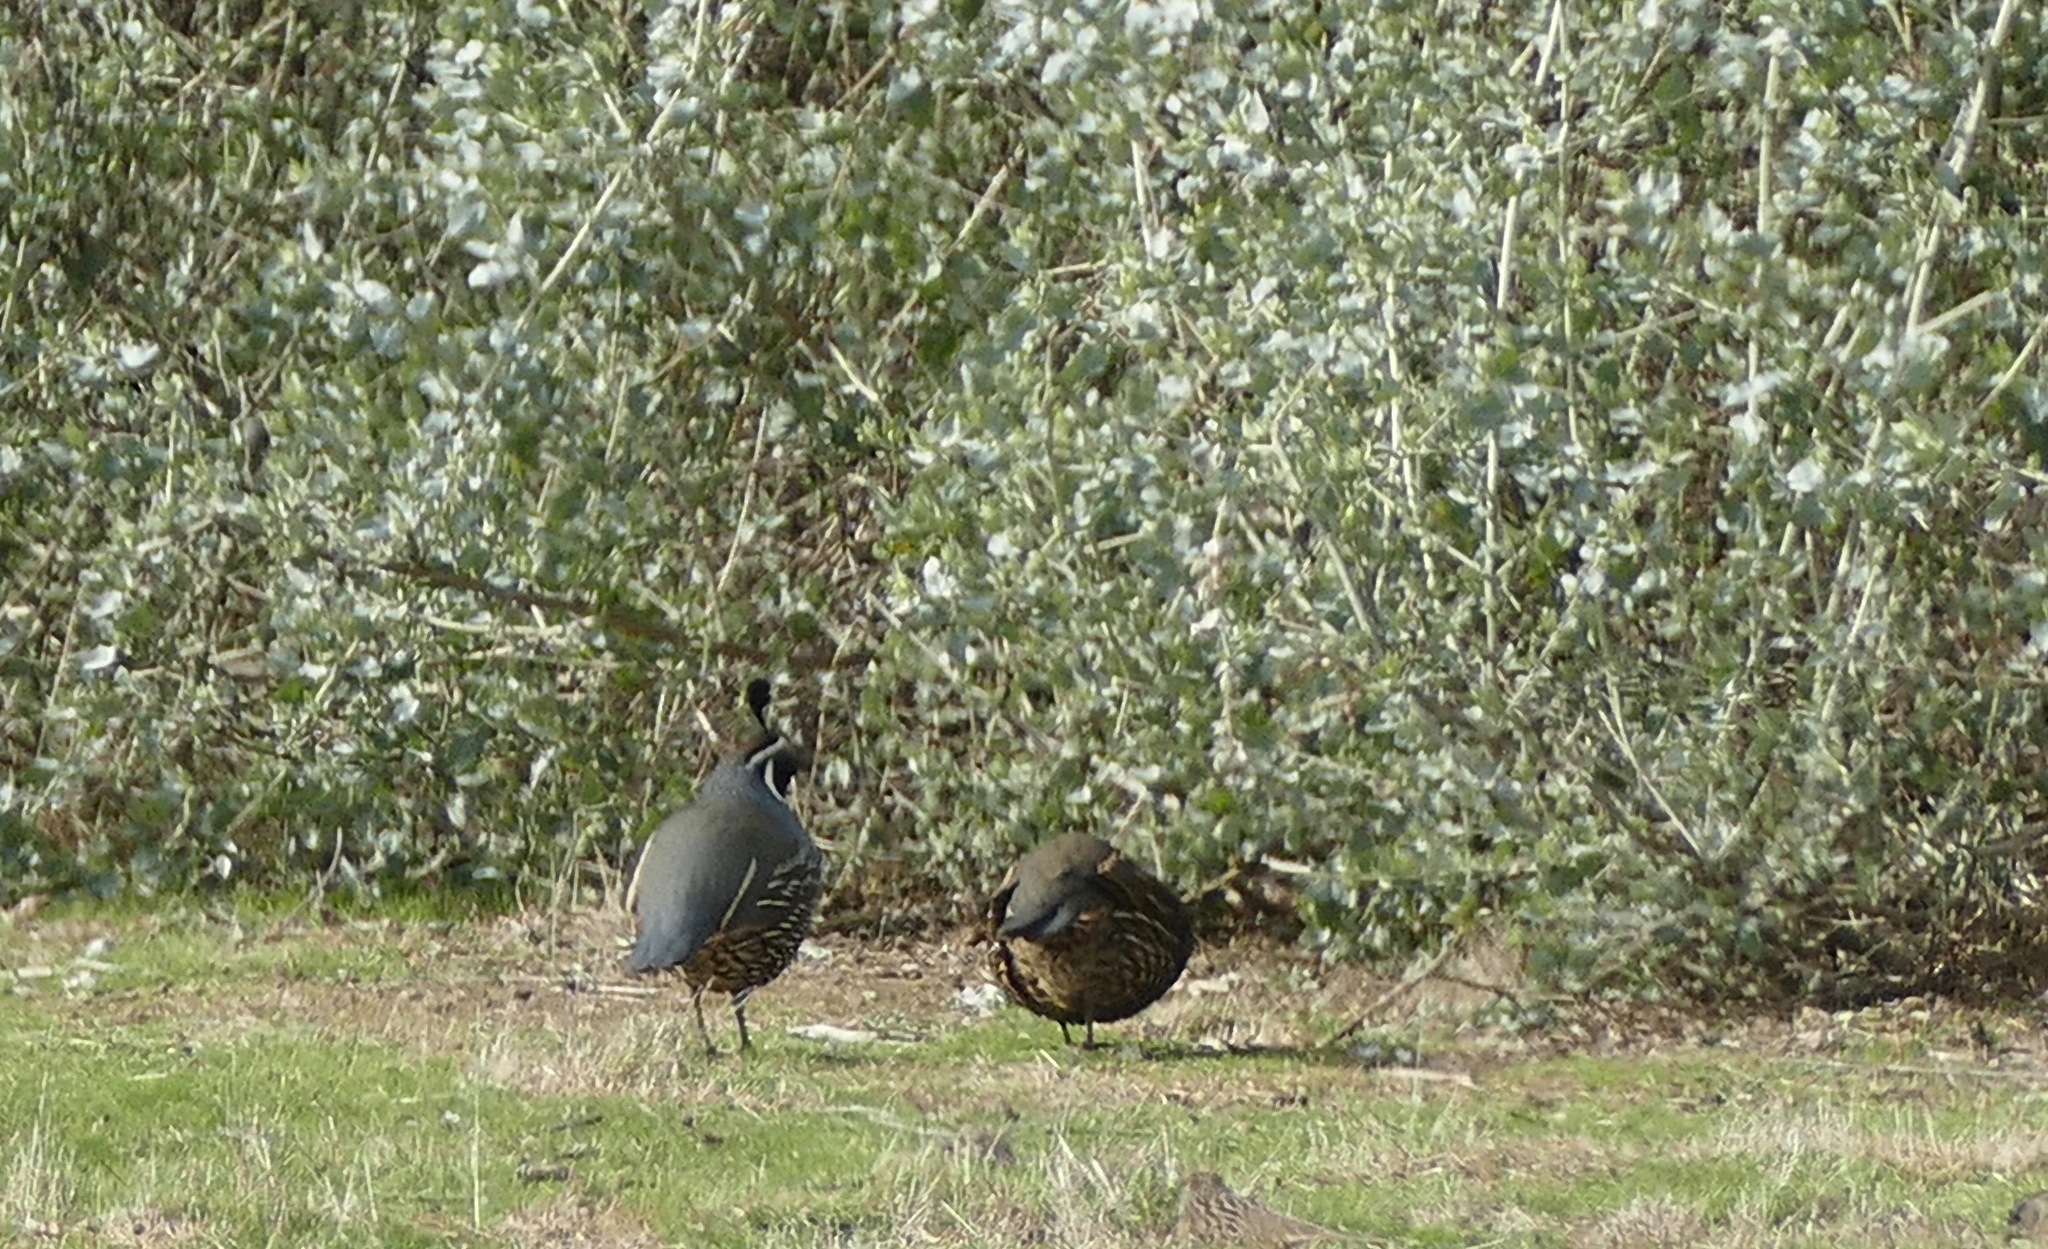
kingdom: Animalia
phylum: Chordata
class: Aves
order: Galliformes
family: Odontophoridae
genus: Callipepla
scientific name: Callipepla californica
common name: California quail
